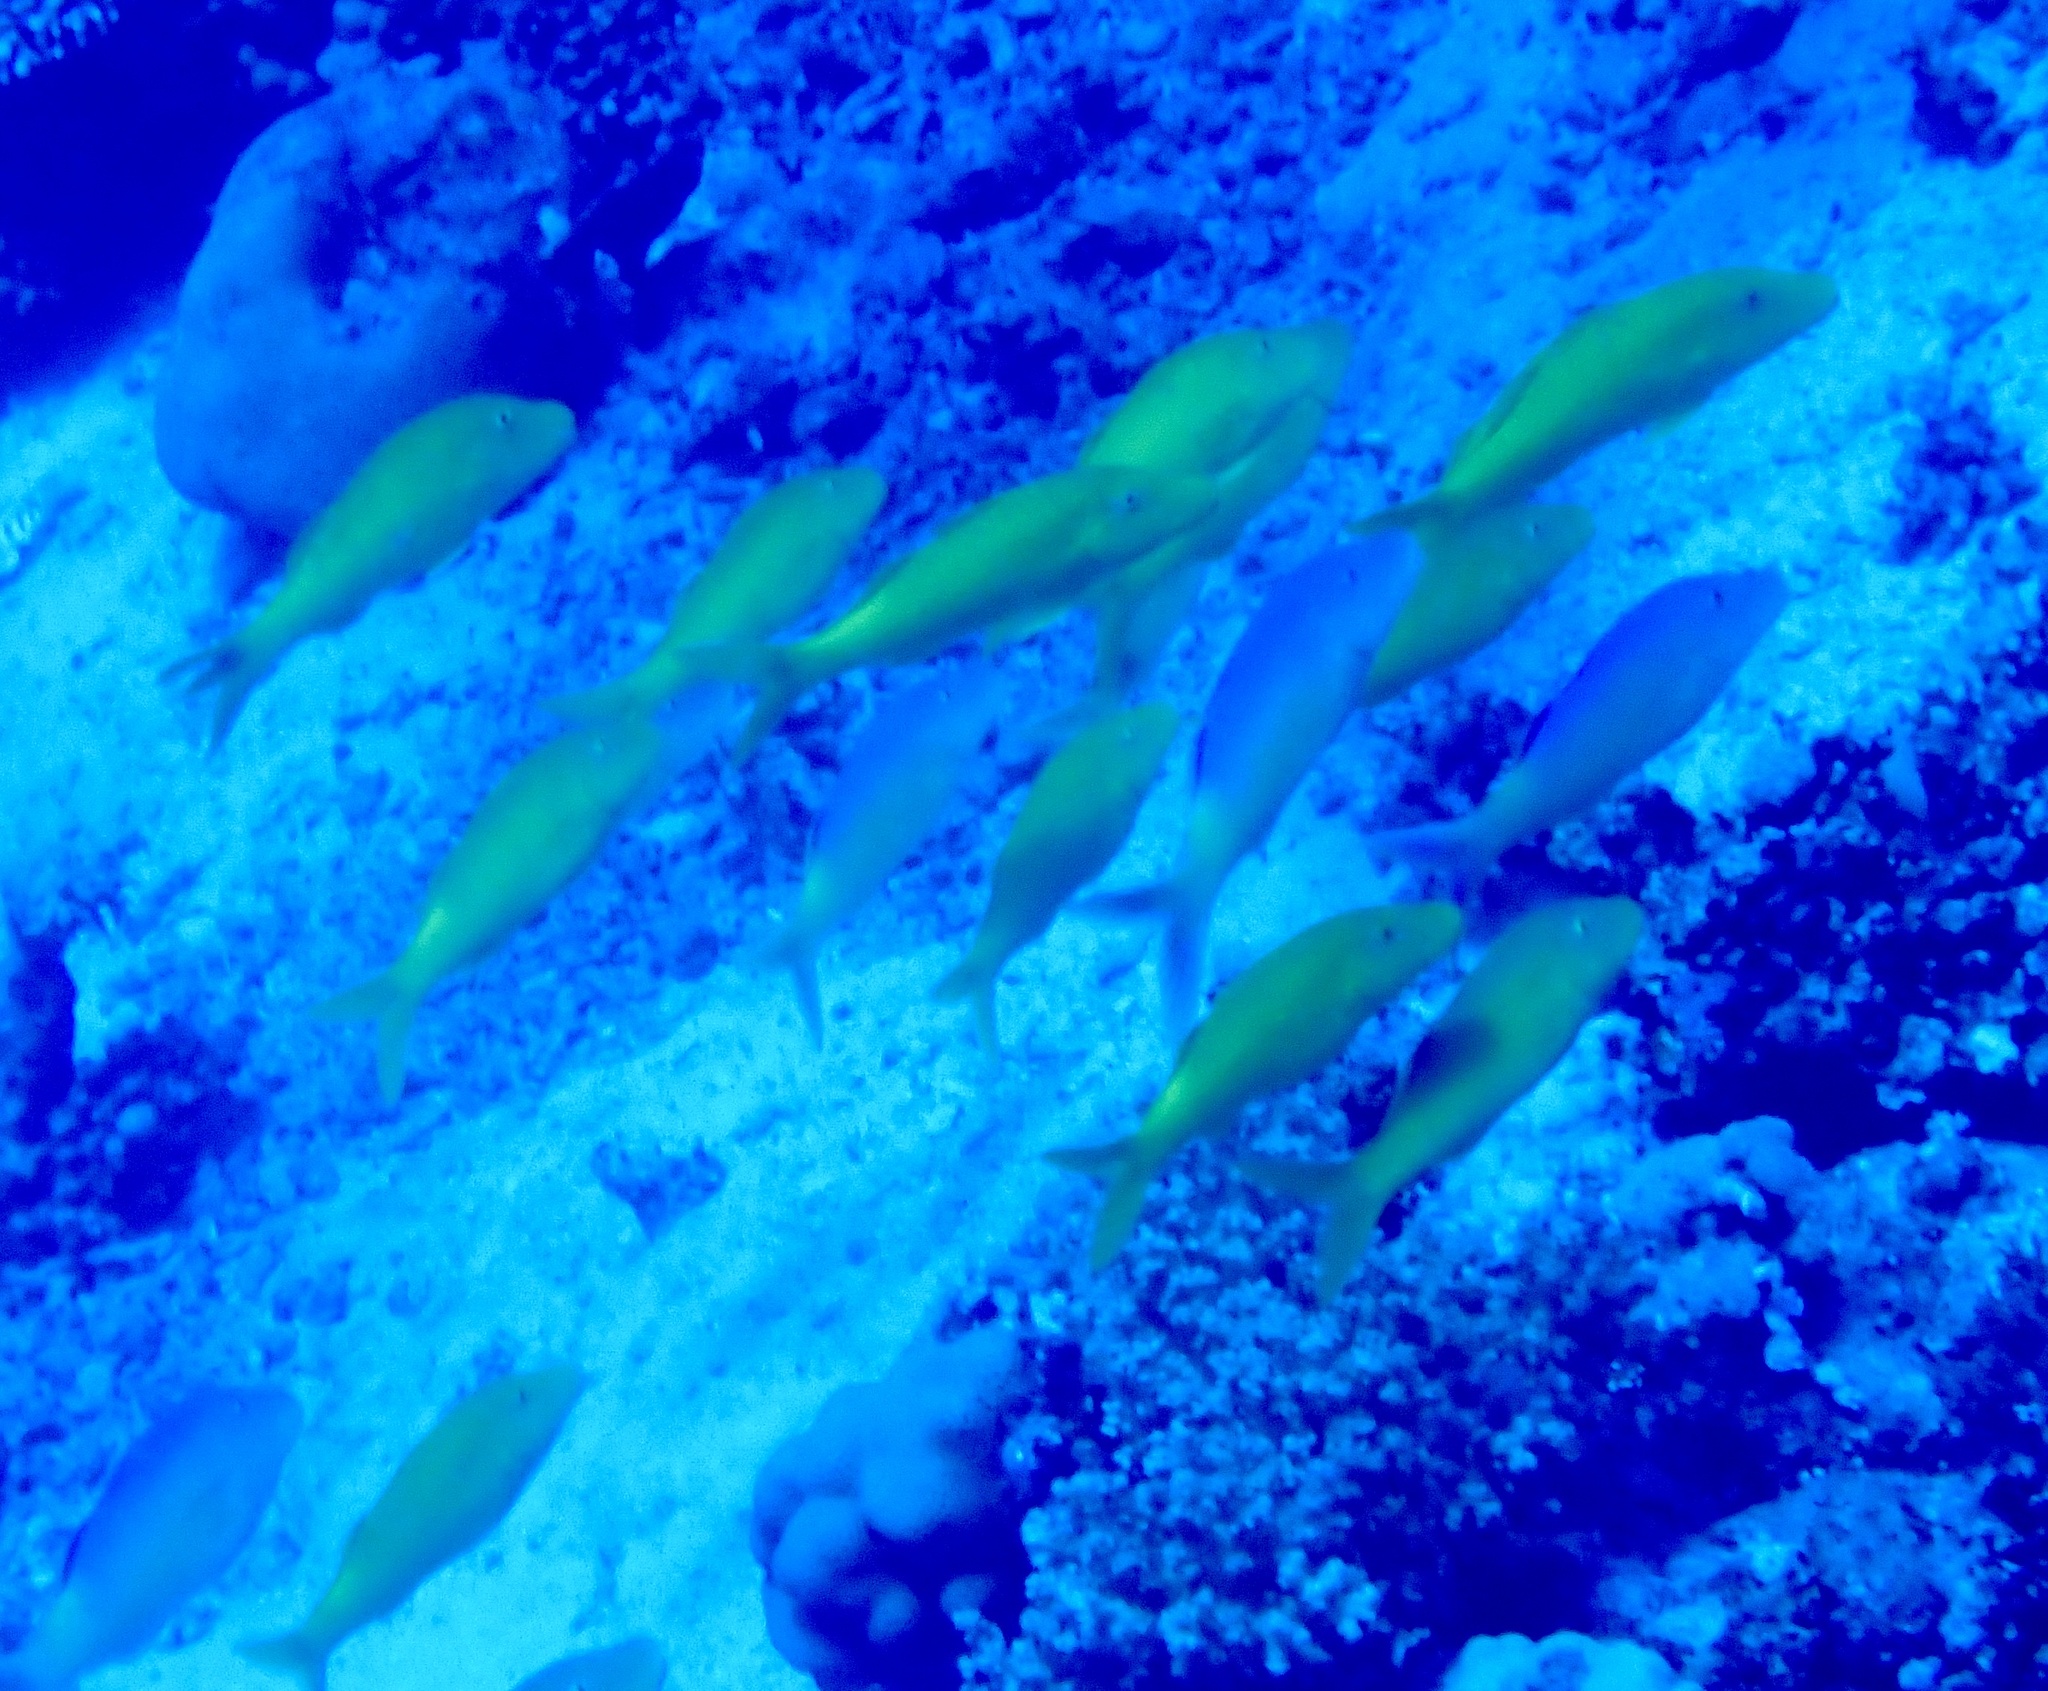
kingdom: Animalia
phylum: Chordata
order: Perciformes
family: Mullidae
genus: Parupeneus
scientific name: Parupeneus cyclostomus
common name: Goldsaddle goatfish
